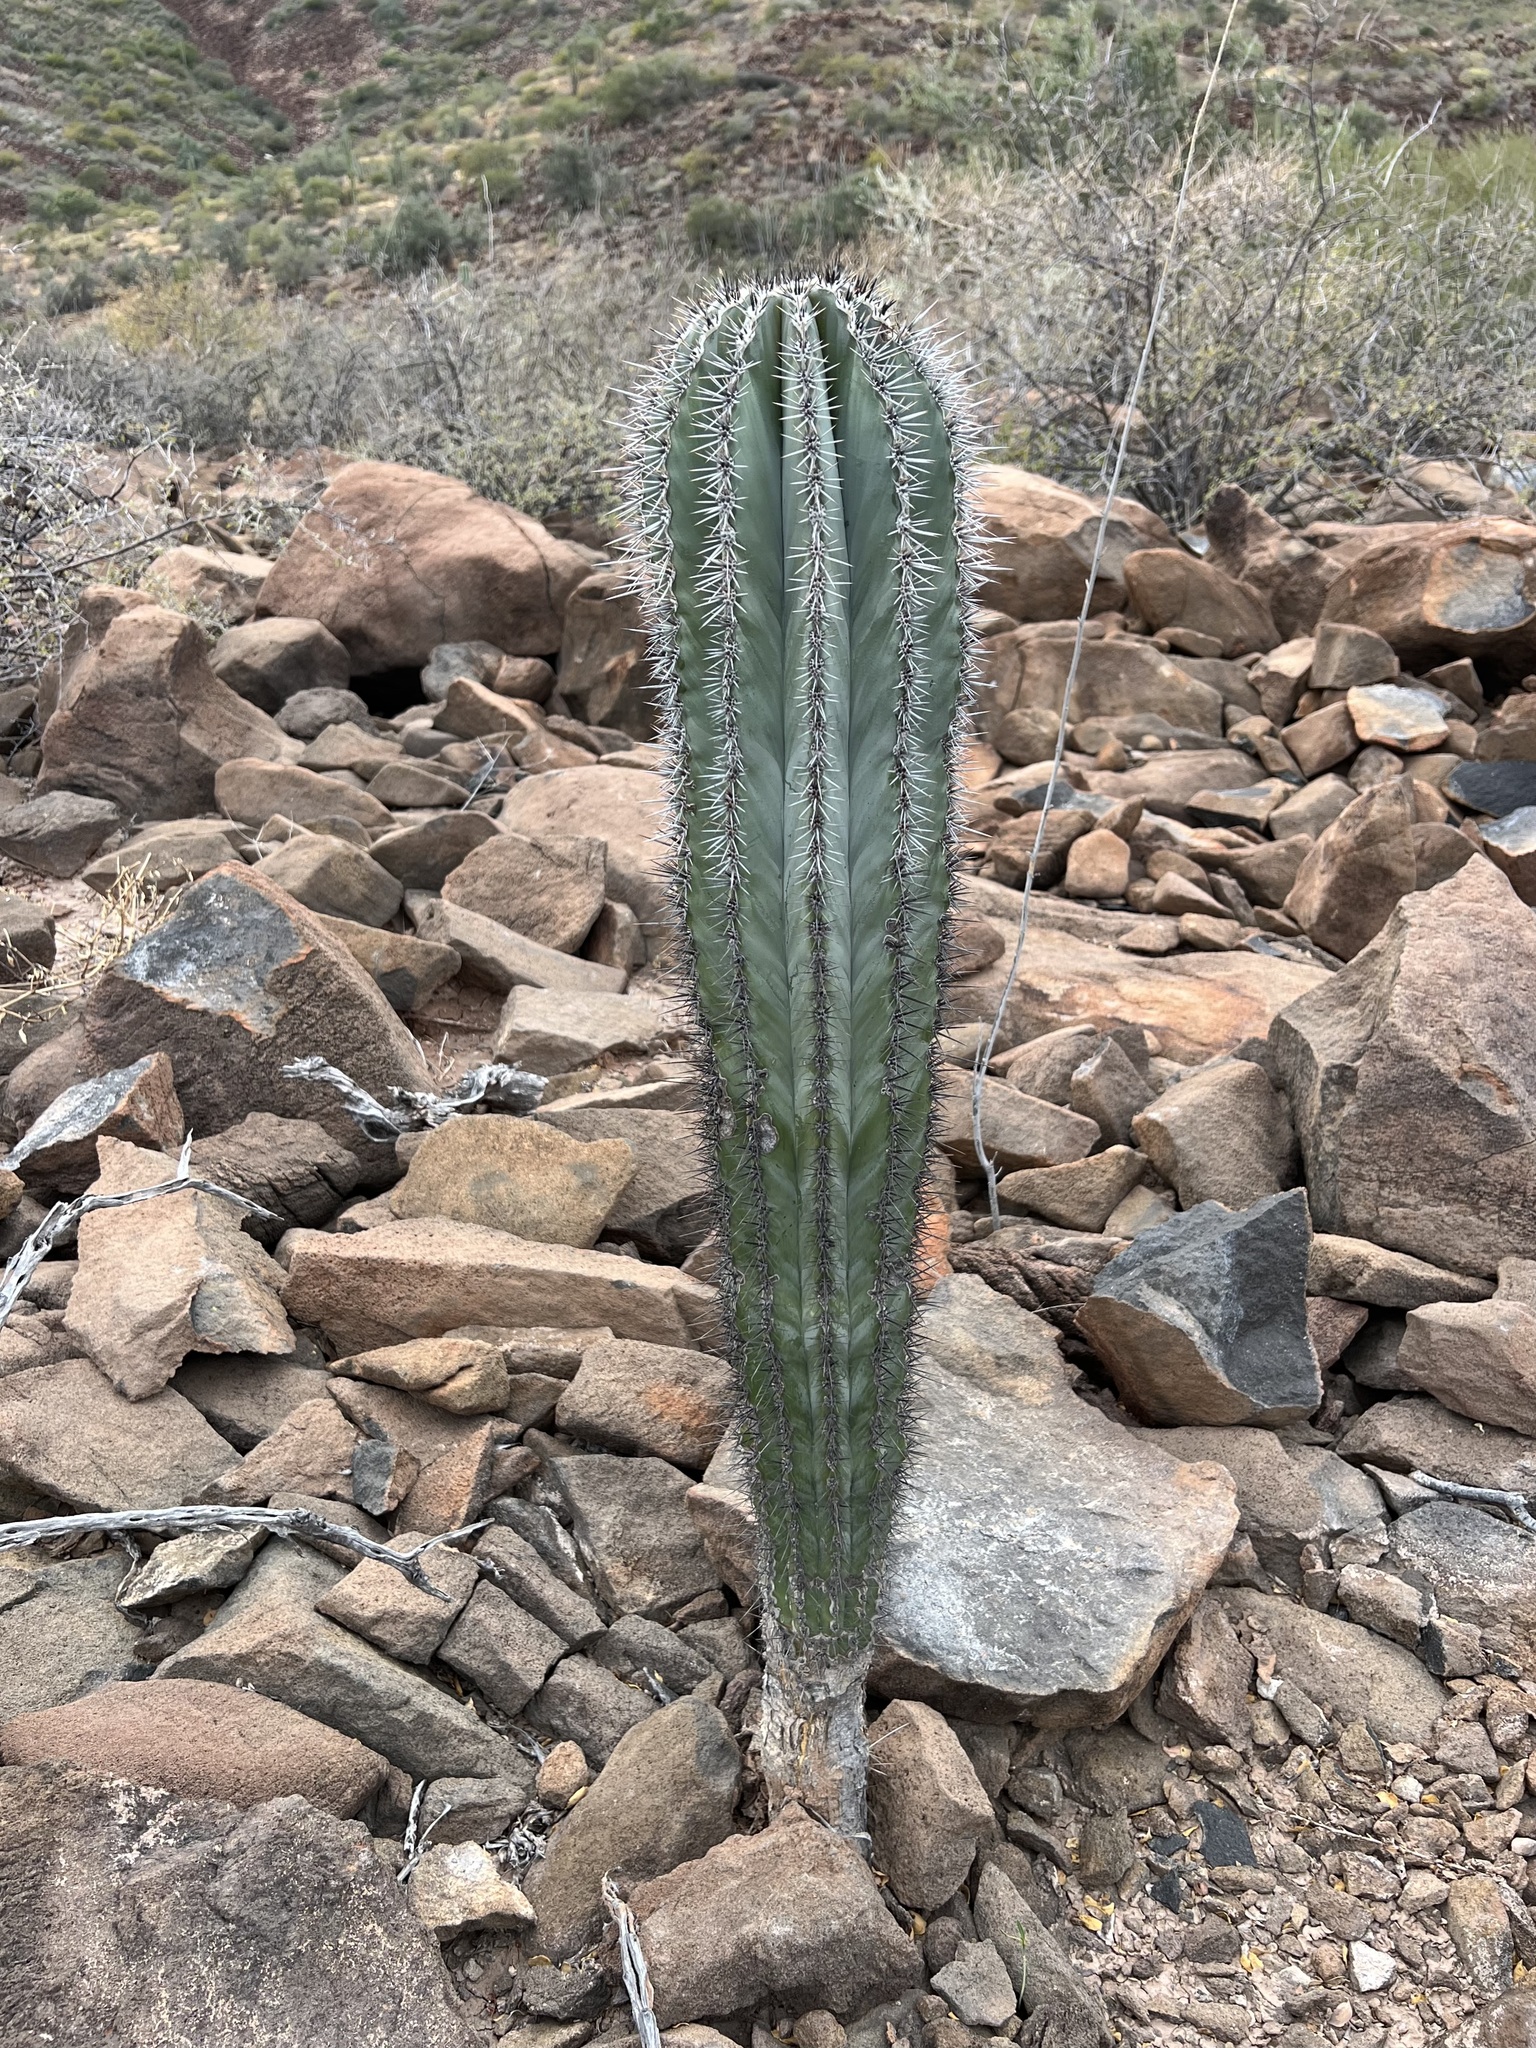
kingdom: Plantae
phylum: Tracheophyta
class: Magnoliopsida
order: Caryophyllales
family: Cactaceae
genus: Pachycereus
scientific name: Pachycereus pringlei
